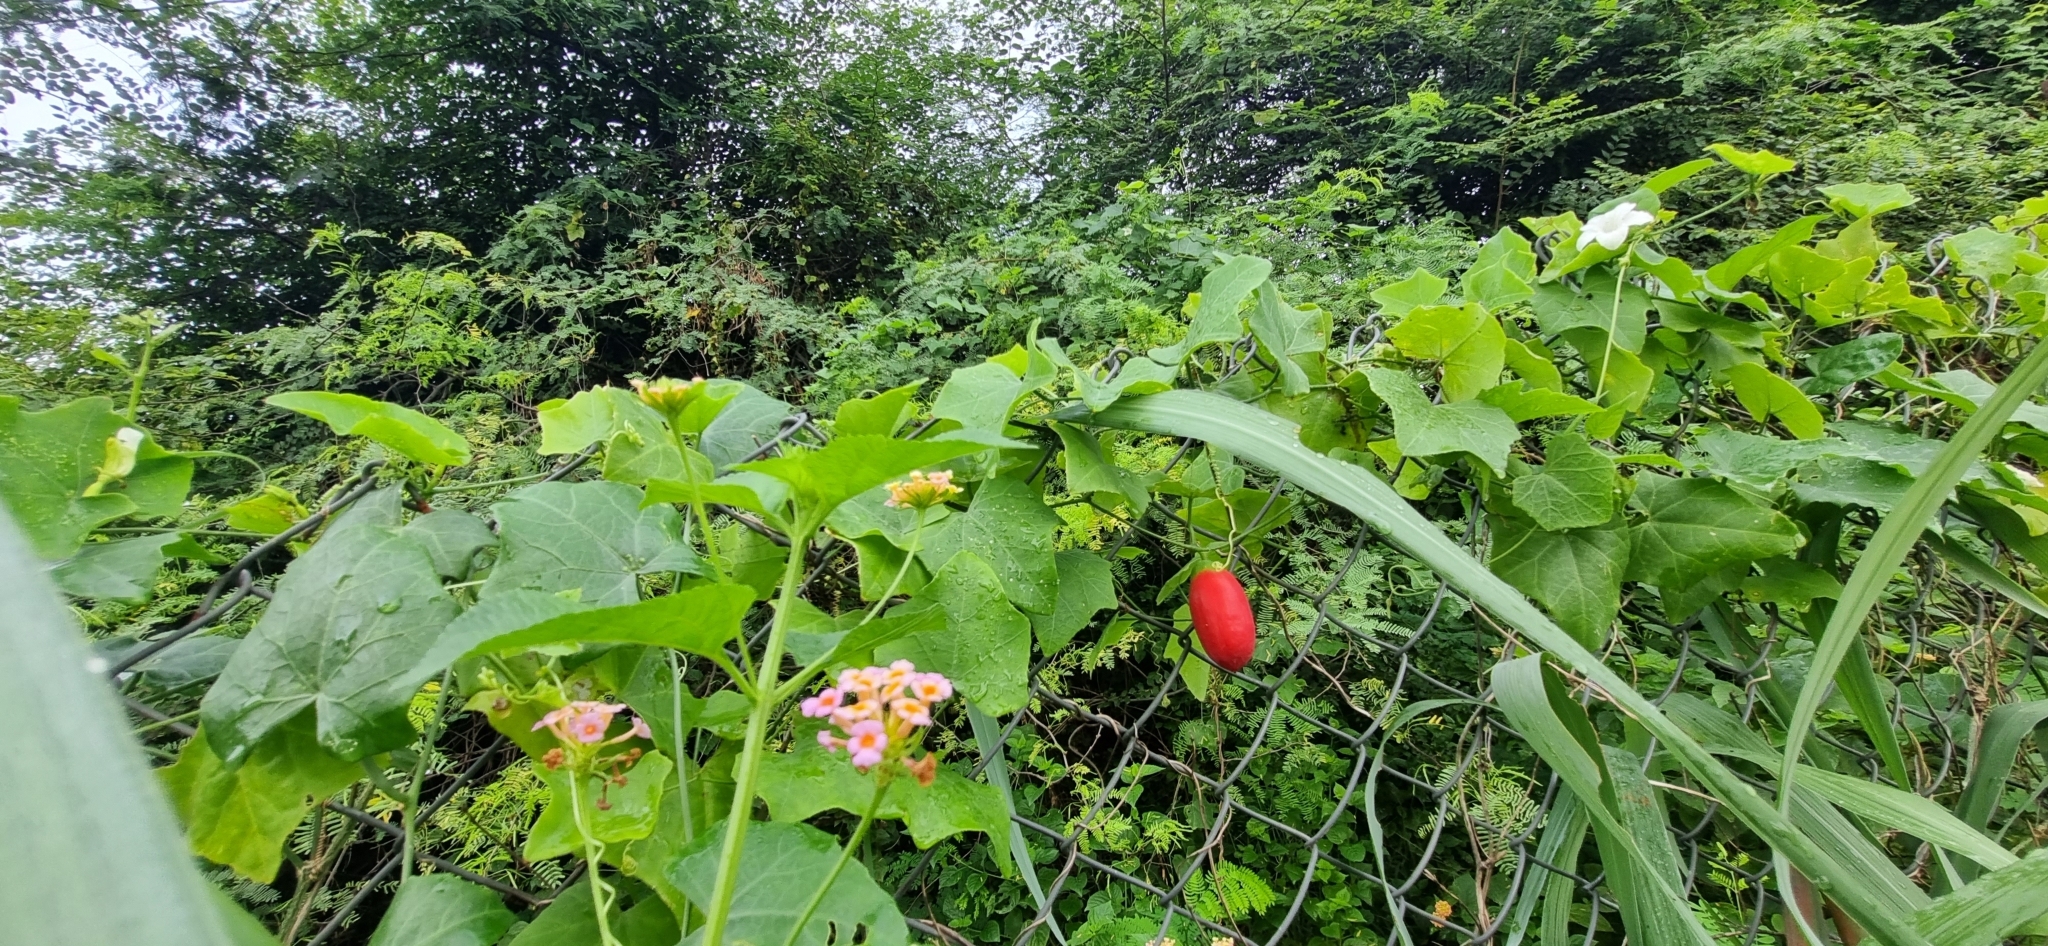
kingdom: Plantae
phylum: Tracheophyta
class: Magnoliopsida
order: Cucurbitales
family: Cucurbitaceae
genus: Coccinia
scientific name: Coccinia grandis
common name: Ivy gourd
